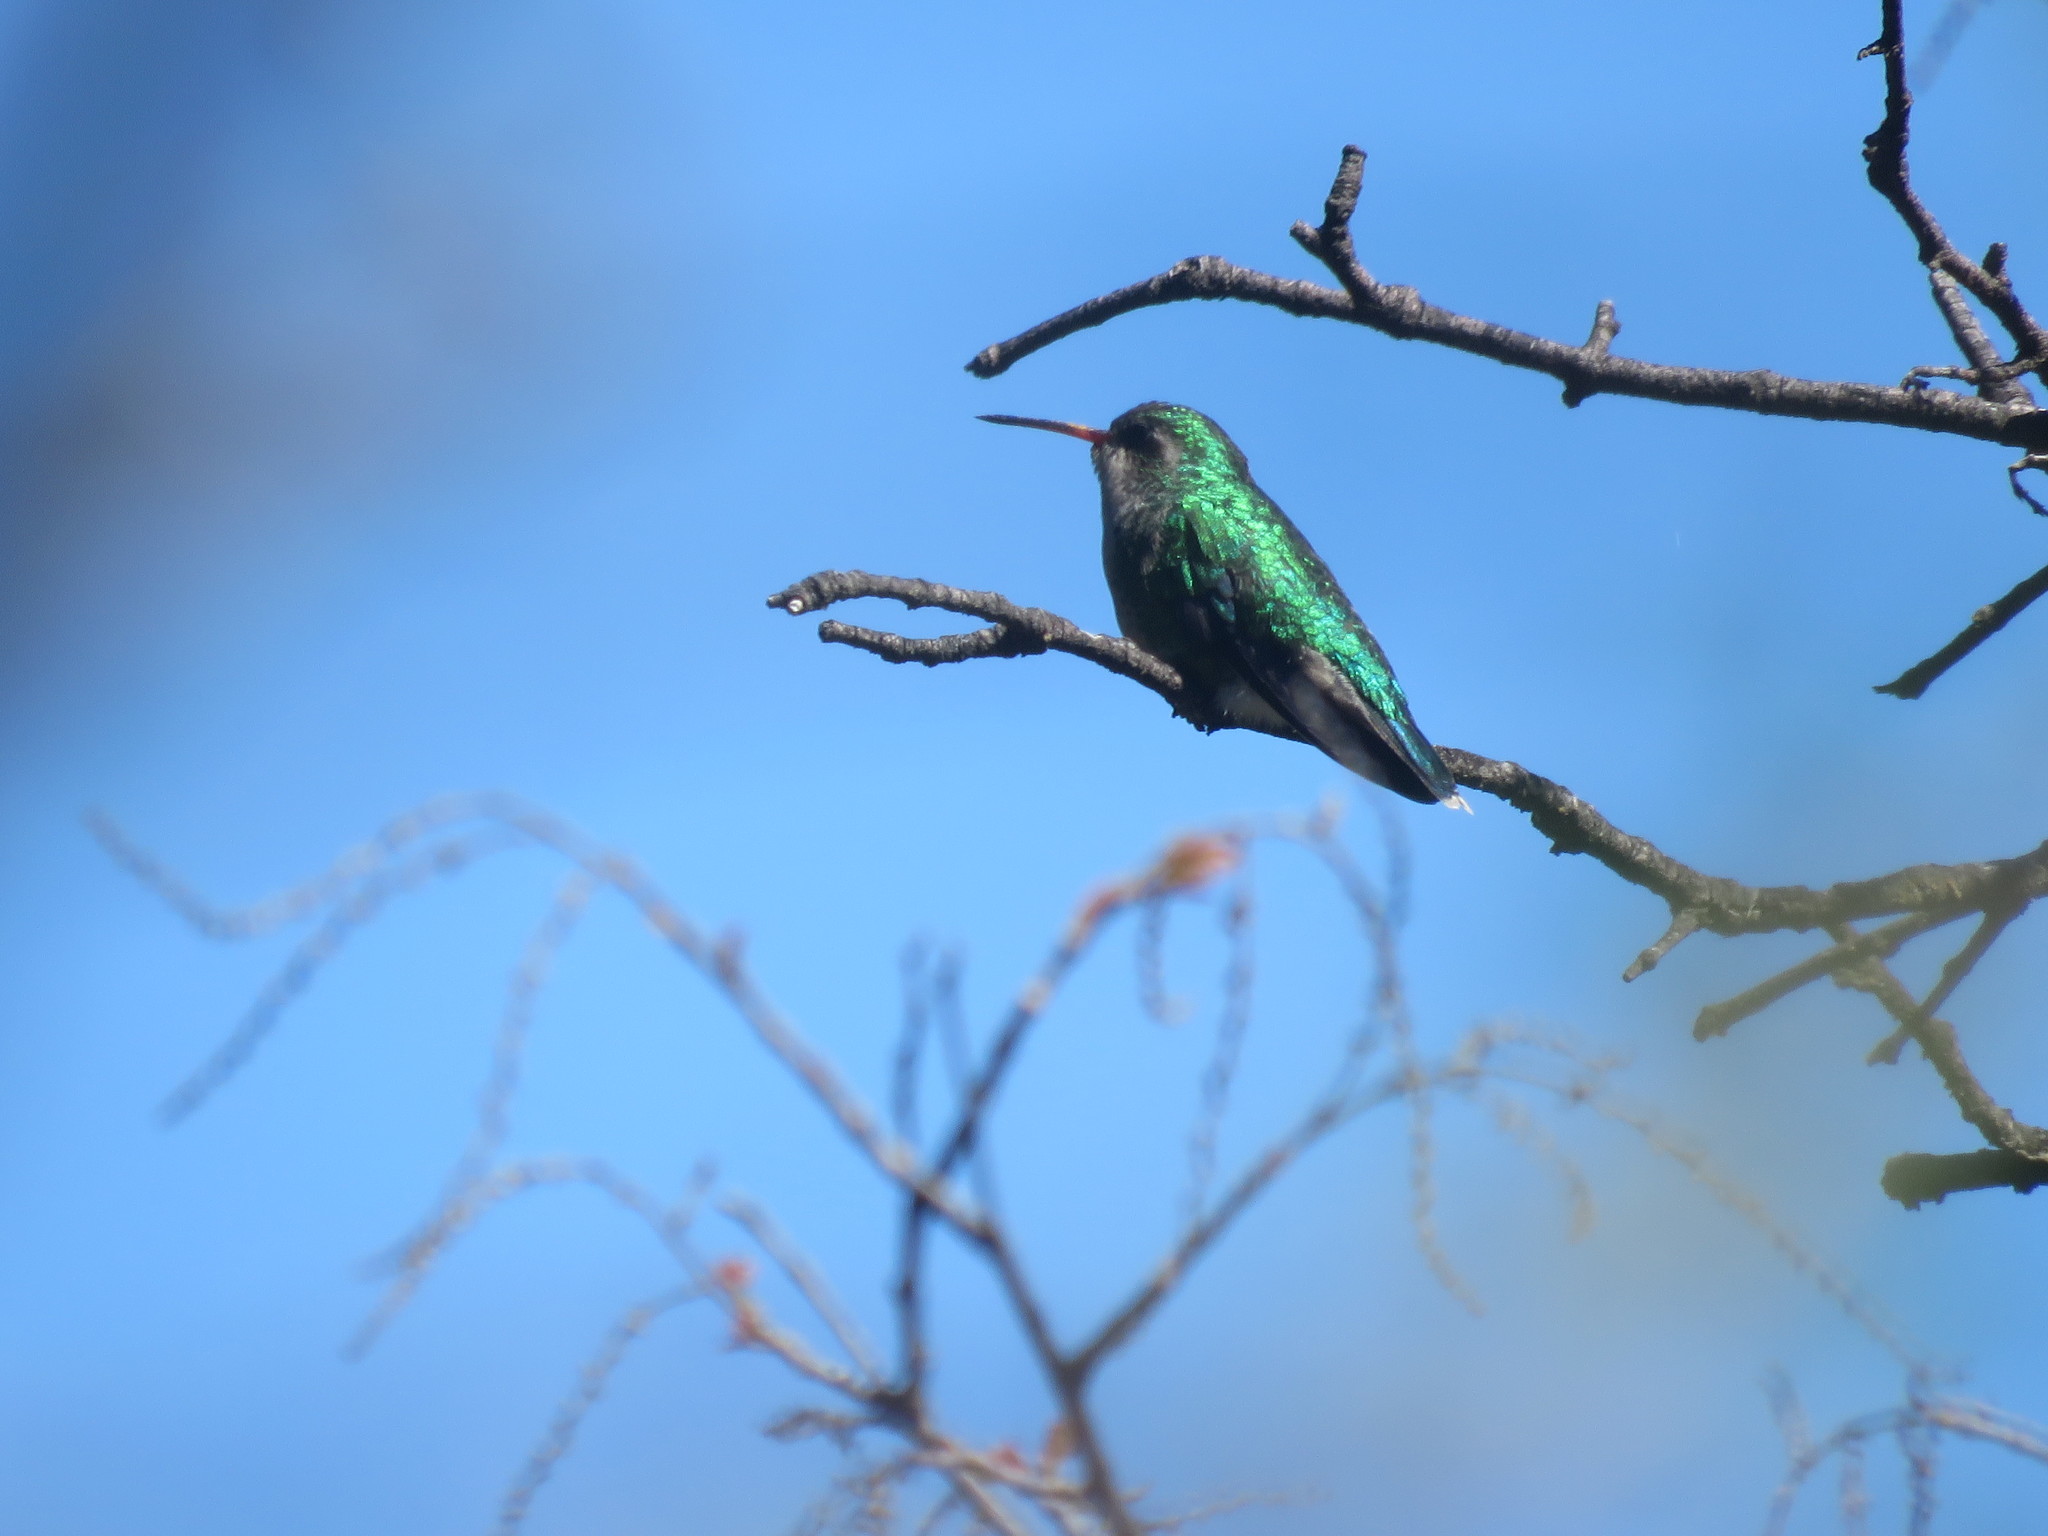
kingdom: Animalia
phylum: Chordata
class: Aves
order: Apodiformes
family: Trochilidae
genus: Chlorostilbon
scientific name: Chlorostilbon lucidus
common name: Glittering-bellied emerald
